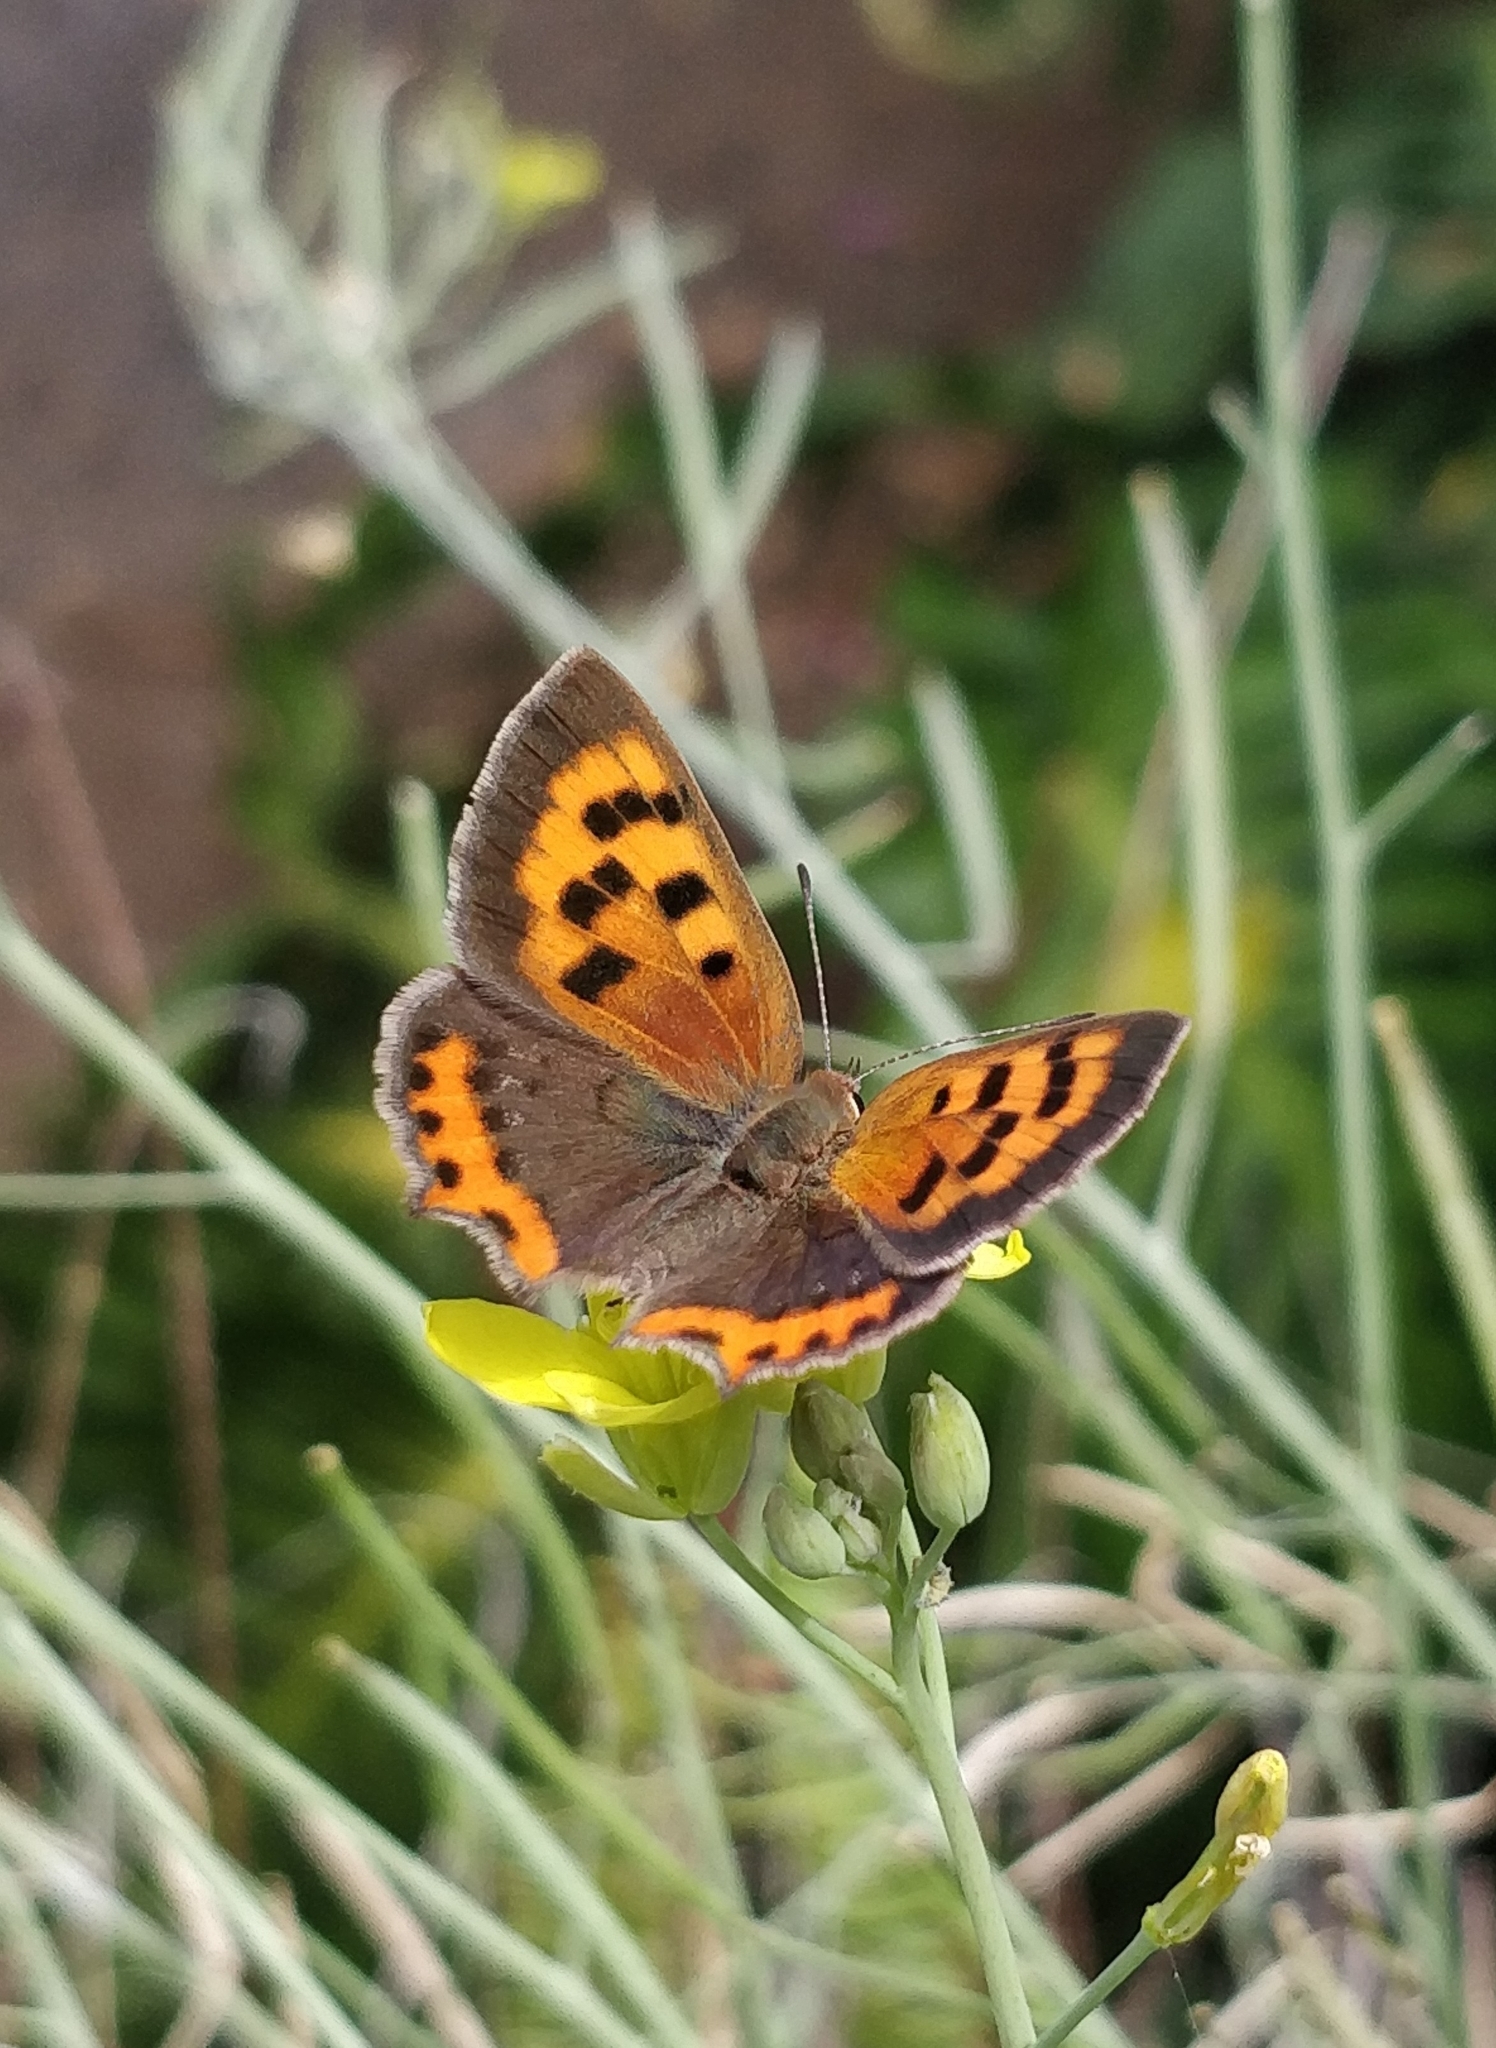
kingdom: Animalia
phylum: Arthropoda
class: Insecta
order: Lepidoptera
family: Lycaenidae
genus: Lycaena
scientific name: Lycaena phlaeas
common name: Small copper
